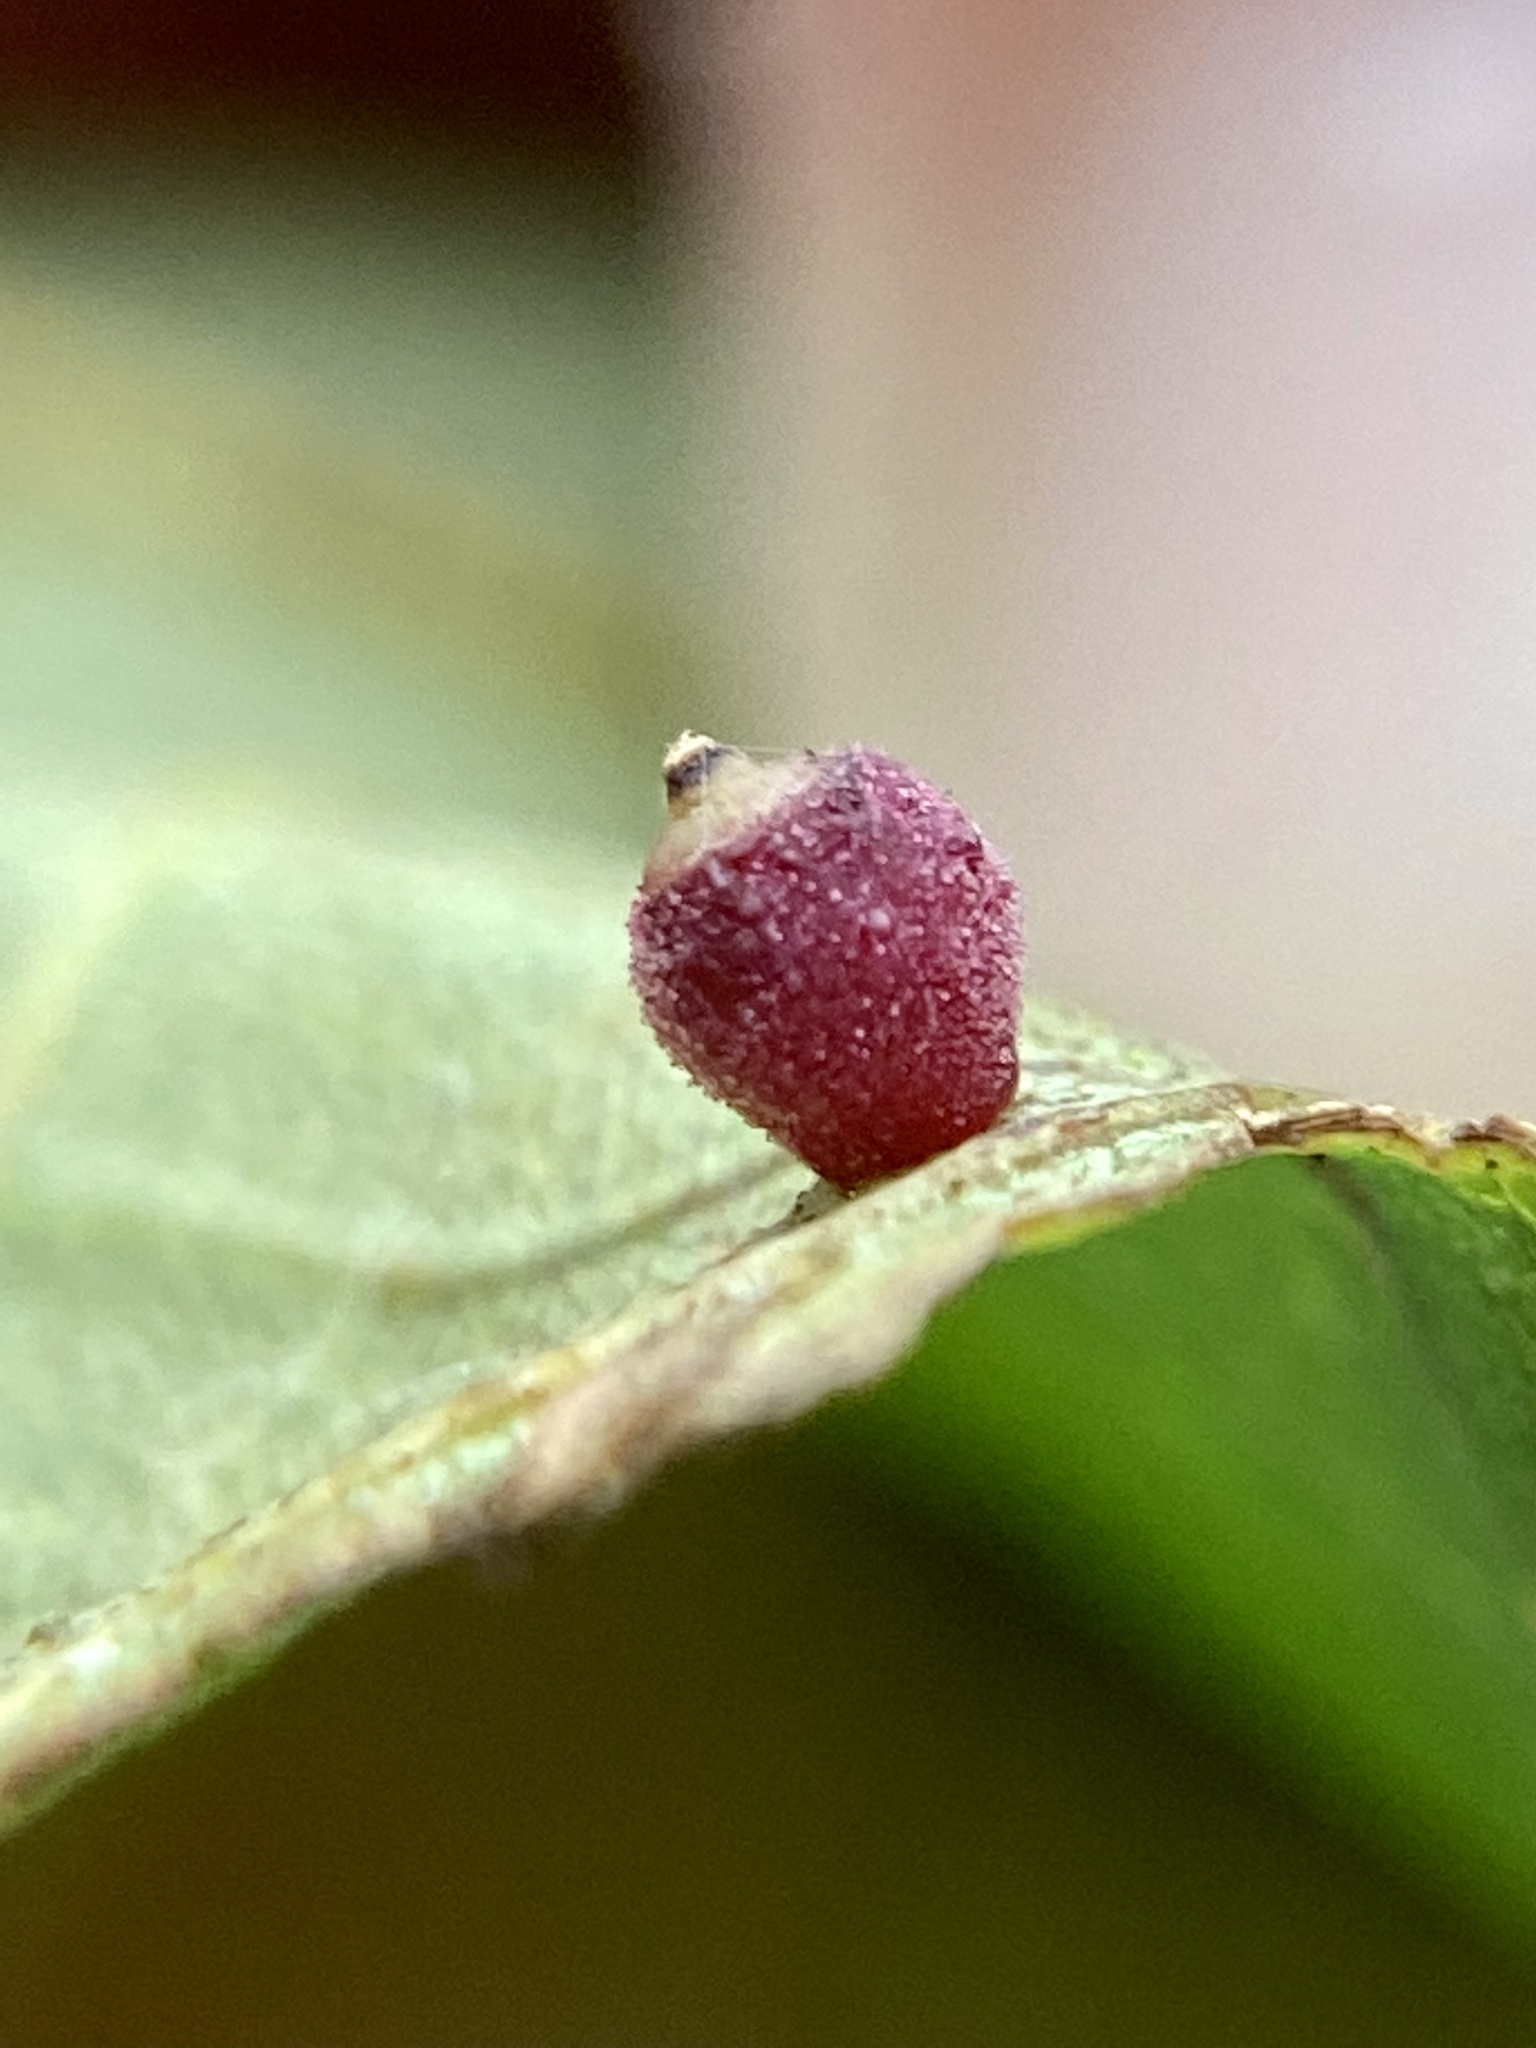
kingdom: Animalia
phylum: Arthropoda
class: Insecta
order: Diptera
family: Cecidomyiidae
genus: Caryomyia
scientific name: Caryomyia tuberidolium
